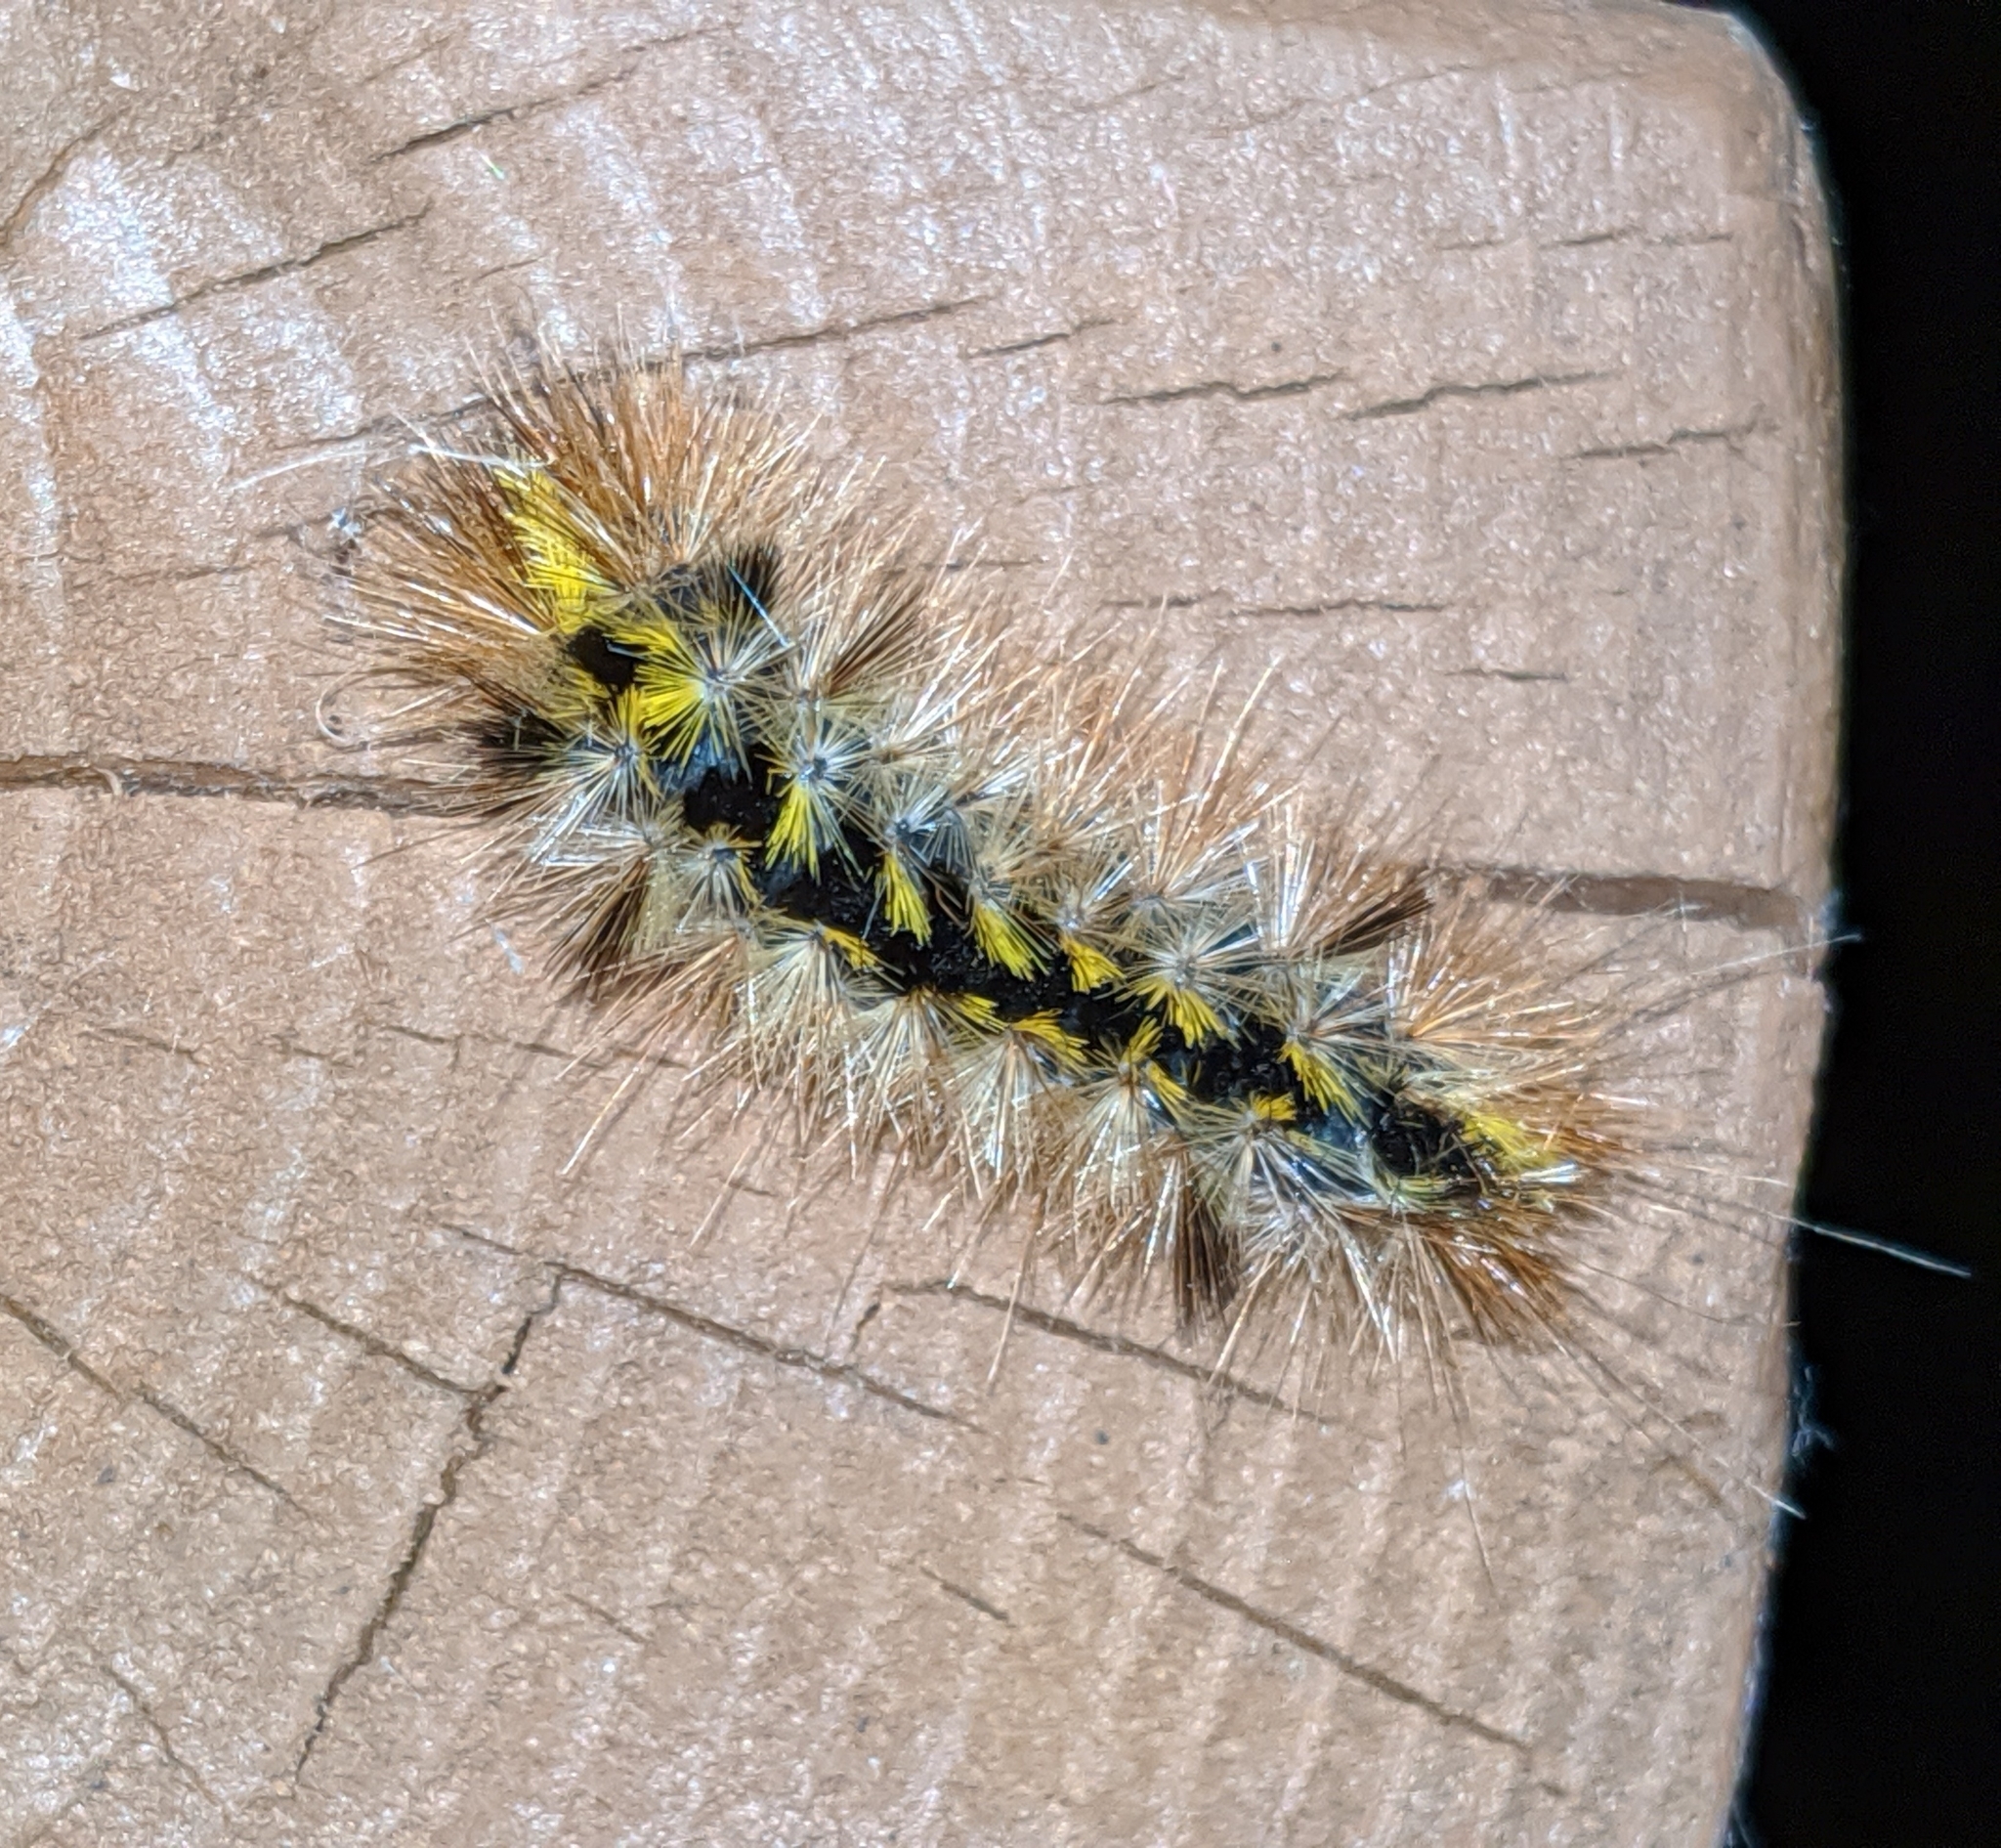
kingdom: Animalia
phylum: Arthropoda
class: Insecta
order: Lepidoptera
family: Erebidae
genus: Lophocampa
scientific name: Lophocampa argentata
